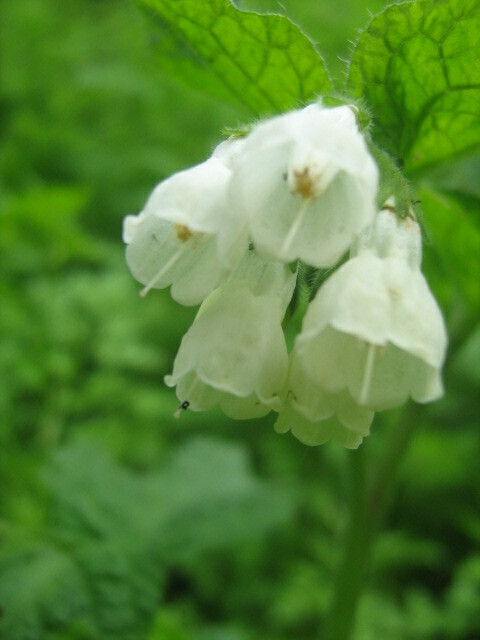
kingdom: Plantae
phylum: Tracheophyta
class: Magnoliopsida
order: Boraginales
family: Boraginaceae
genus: Symphytum
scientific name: Symphytum tauricum
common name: Crimean comfrey
